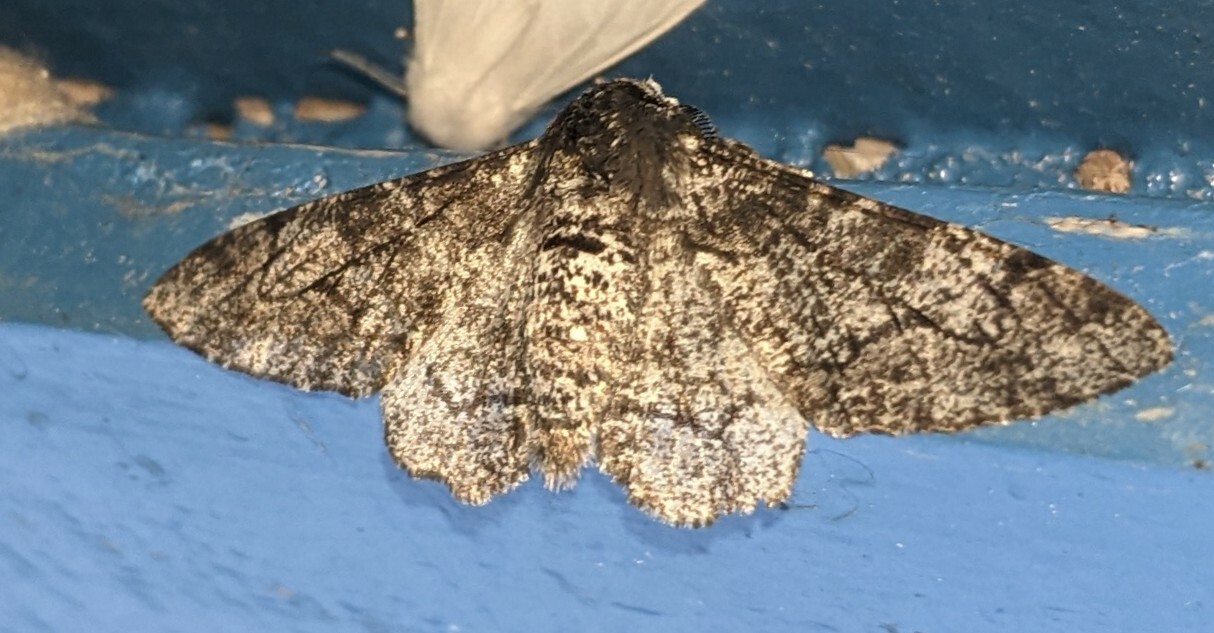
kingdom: Animalia
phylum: Arthropoda
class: Insecta
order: Lepidoptera
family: Geometridae
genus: Biston
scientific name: Biston betularia
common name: Peppered moth
